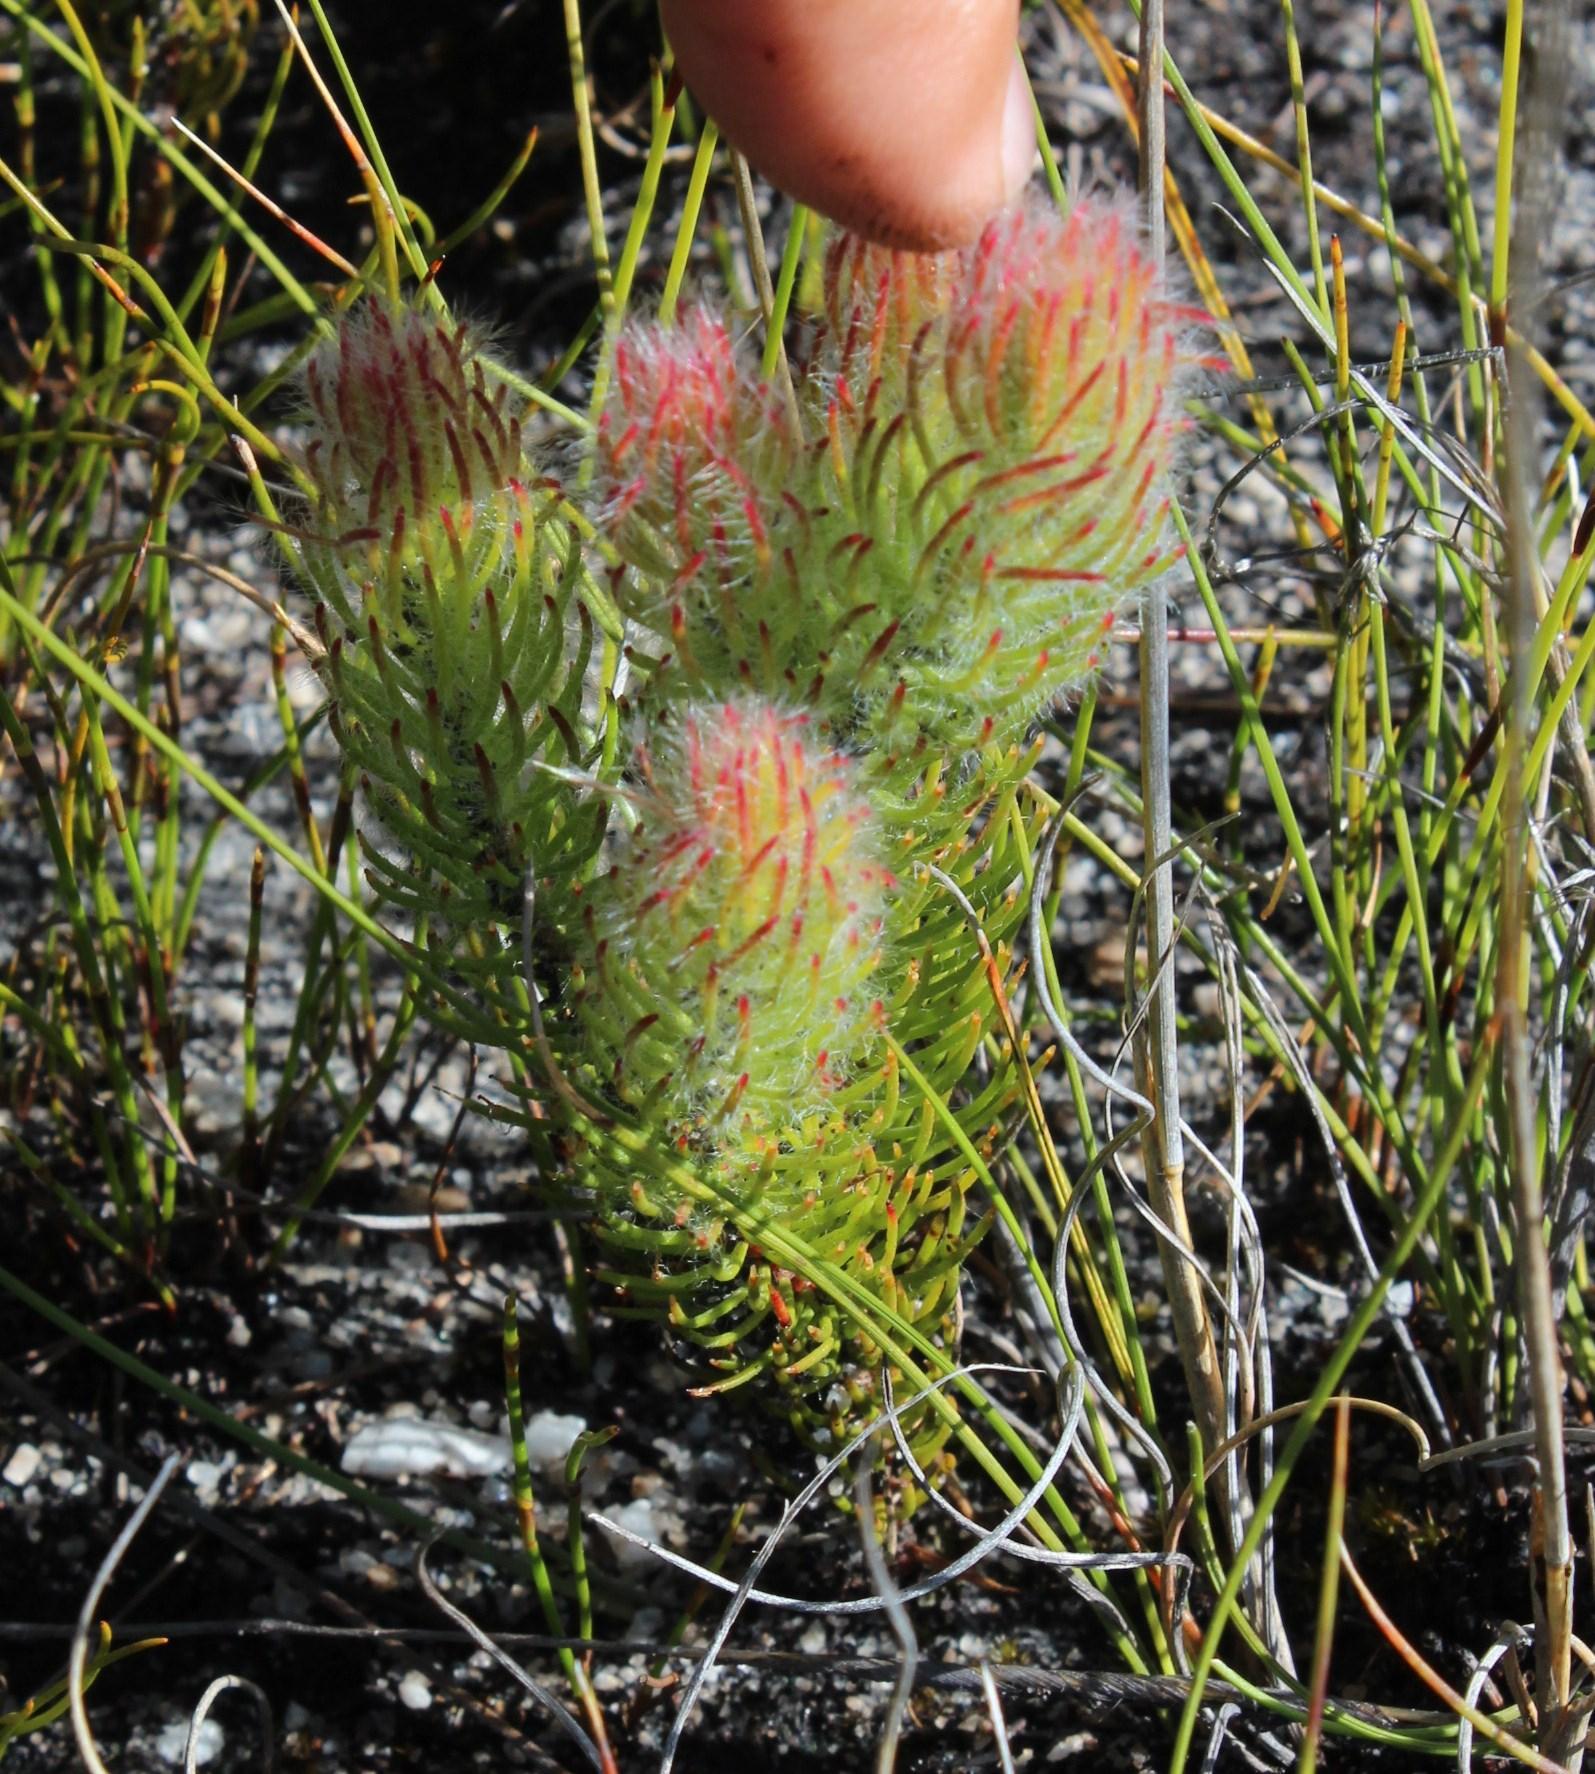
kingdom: Plantae
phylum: Tracheophyta
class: Magnoliopsida
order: Proteales
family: Proteaceae
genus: Sorocephalus
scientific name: Sorocephalus claviger
